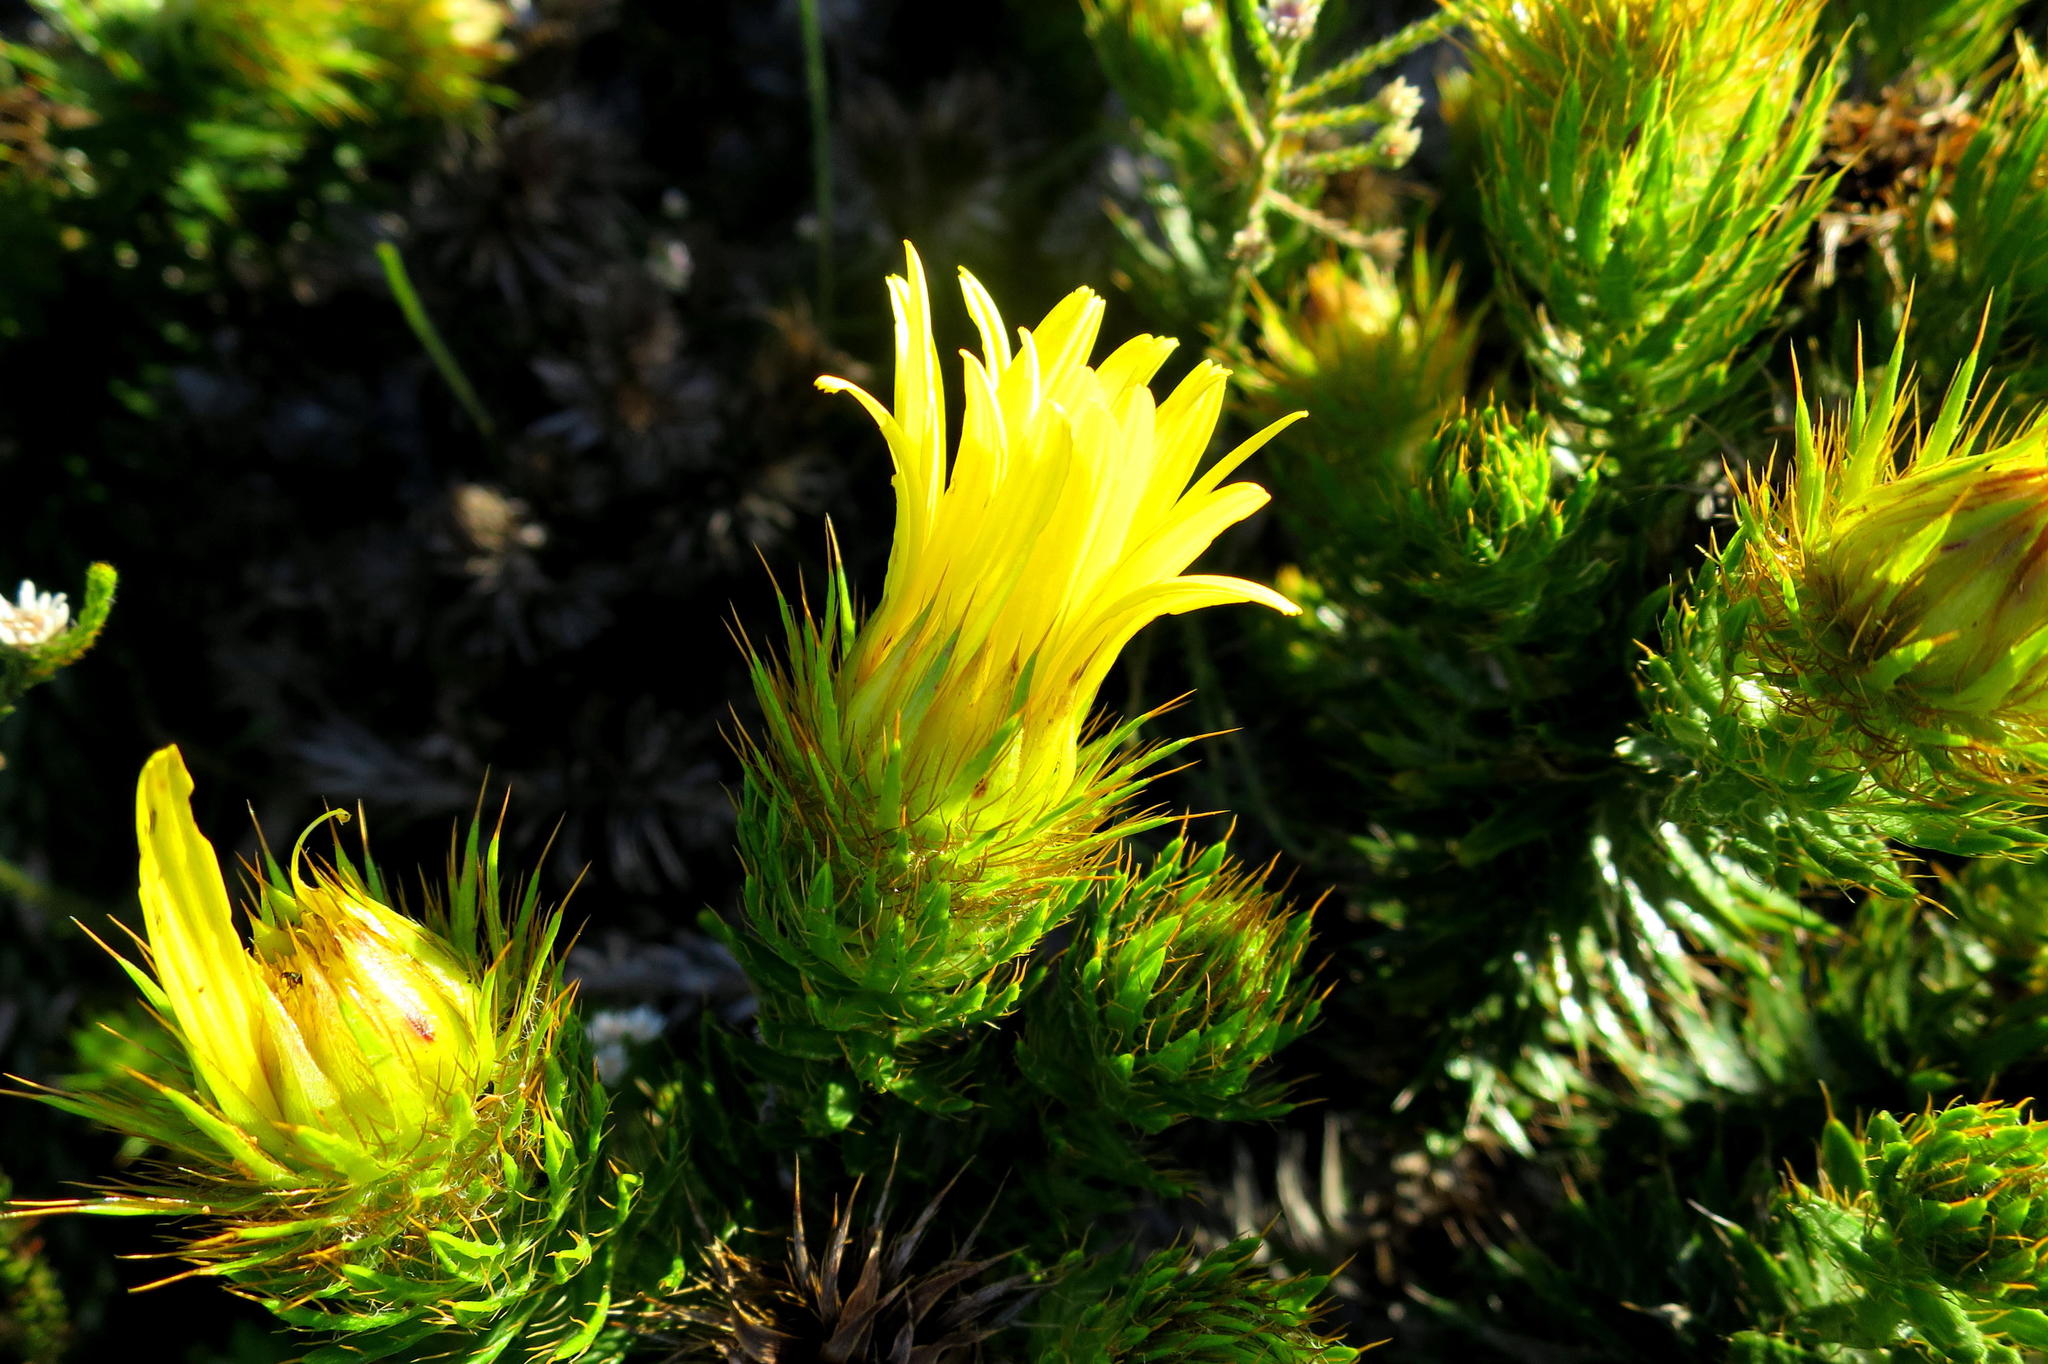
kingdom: Plantae
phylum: Tracheophyta
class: Magnoliopsida
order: Asterales
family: Asteraceae
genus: Cullumia
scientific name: Cullumia carlinoides
